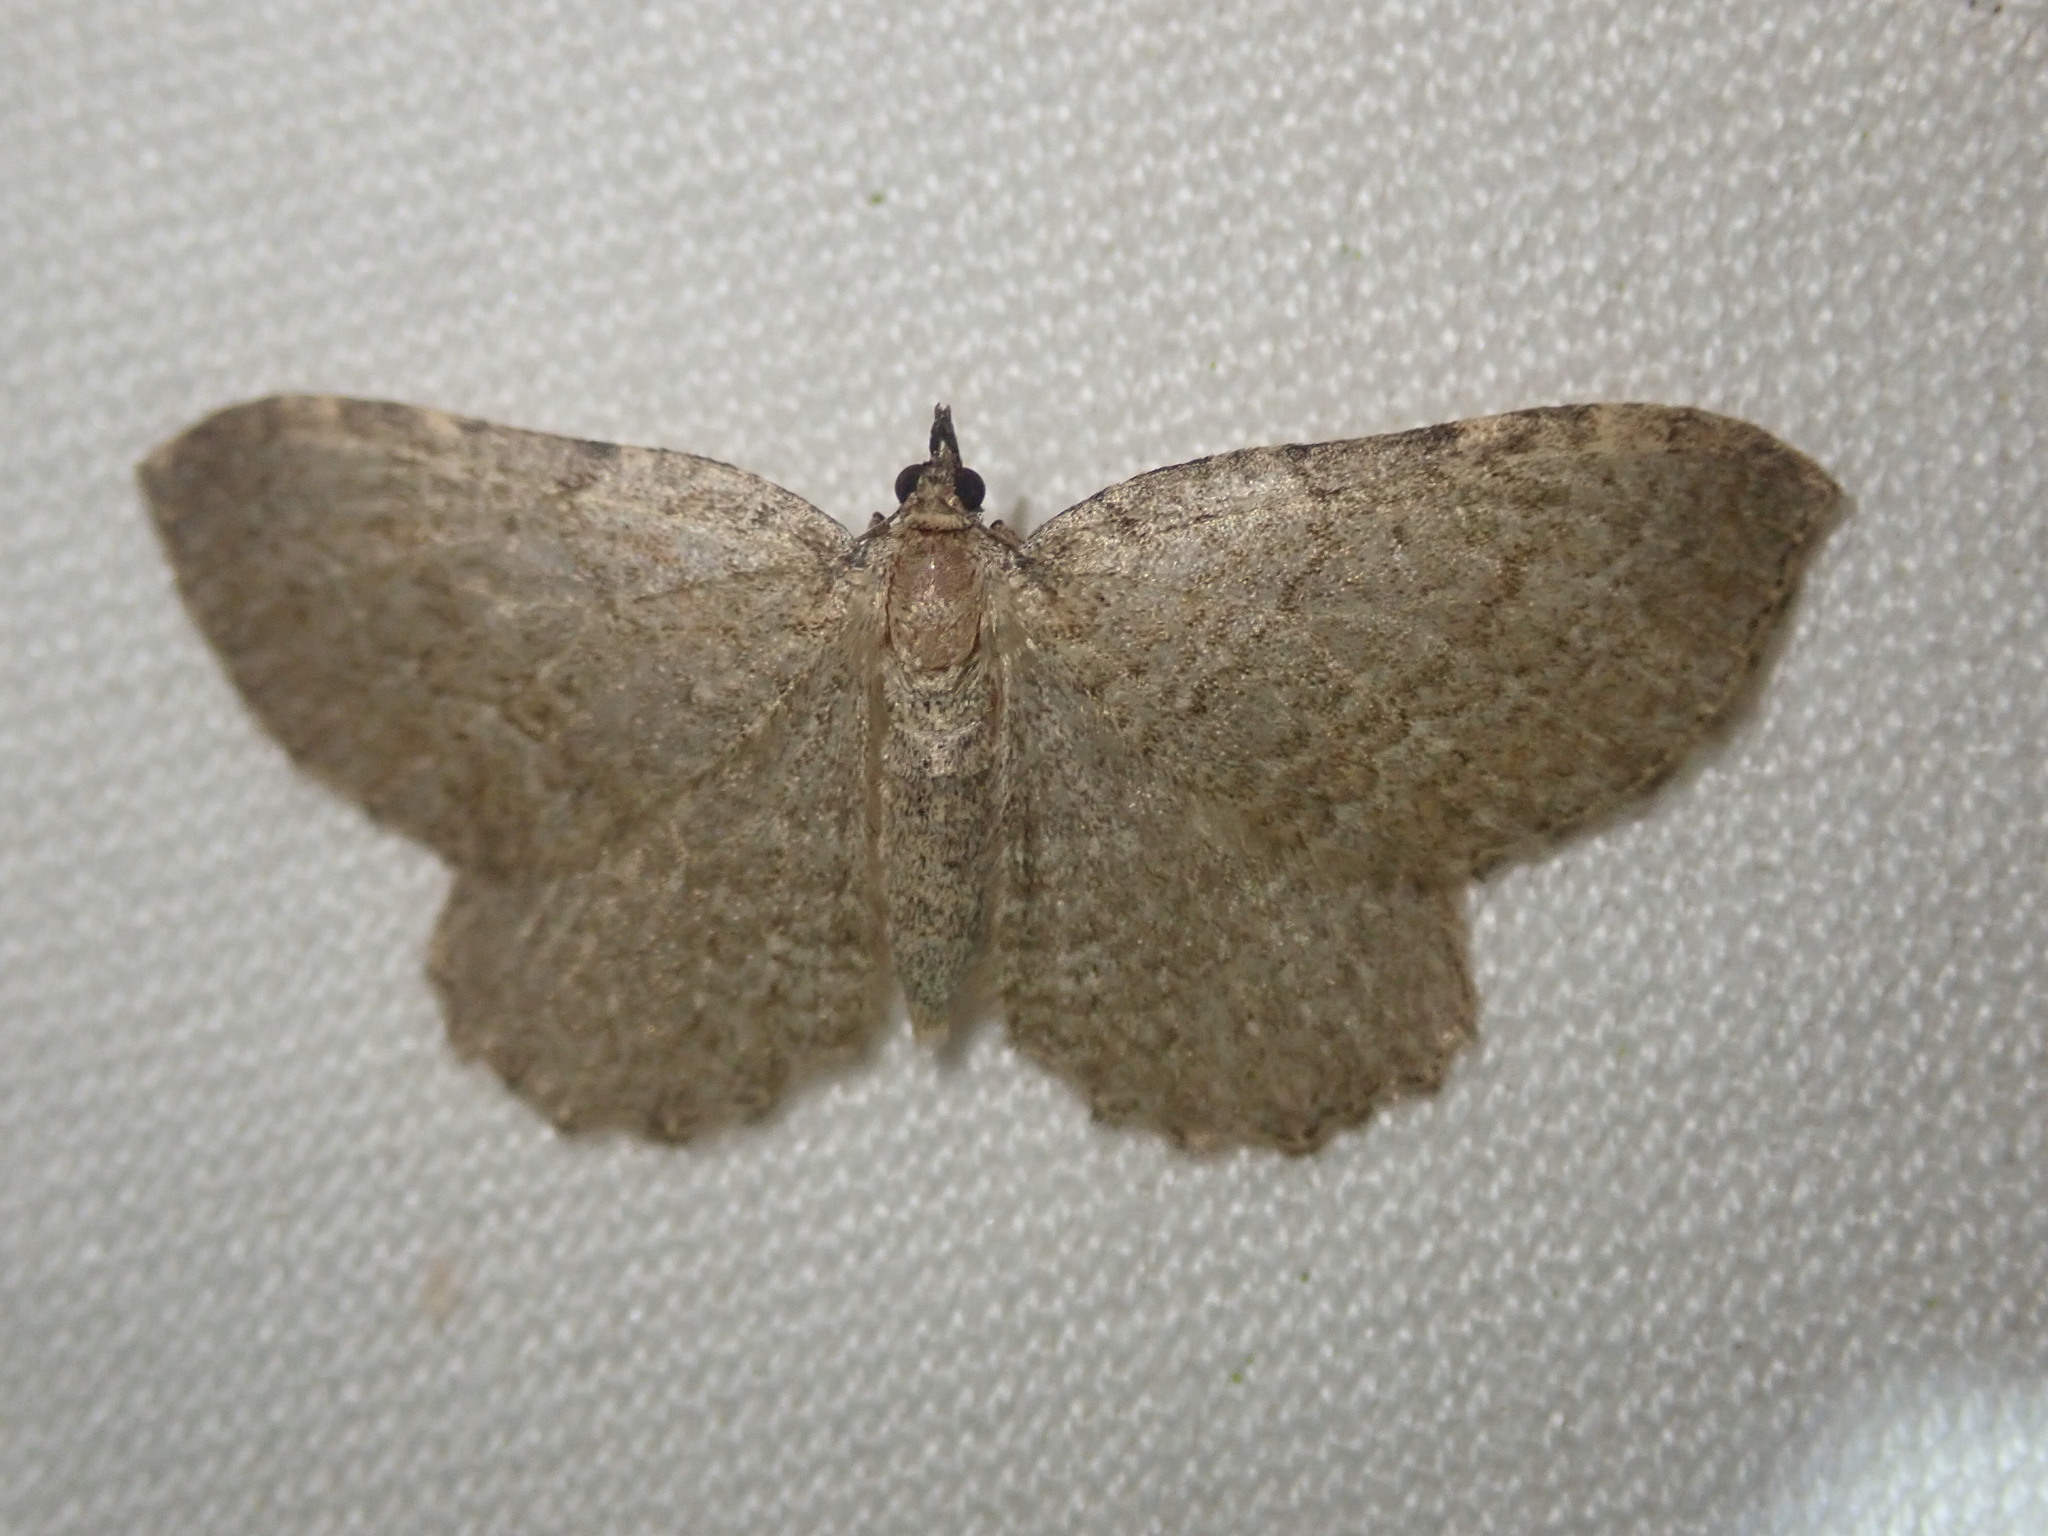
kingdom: Animalia
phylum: Arthropoda
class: Insecta
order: Lepidoptera
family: Geometridae
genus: Philereme
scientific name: Philereme vetulata
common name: Brown scallop
